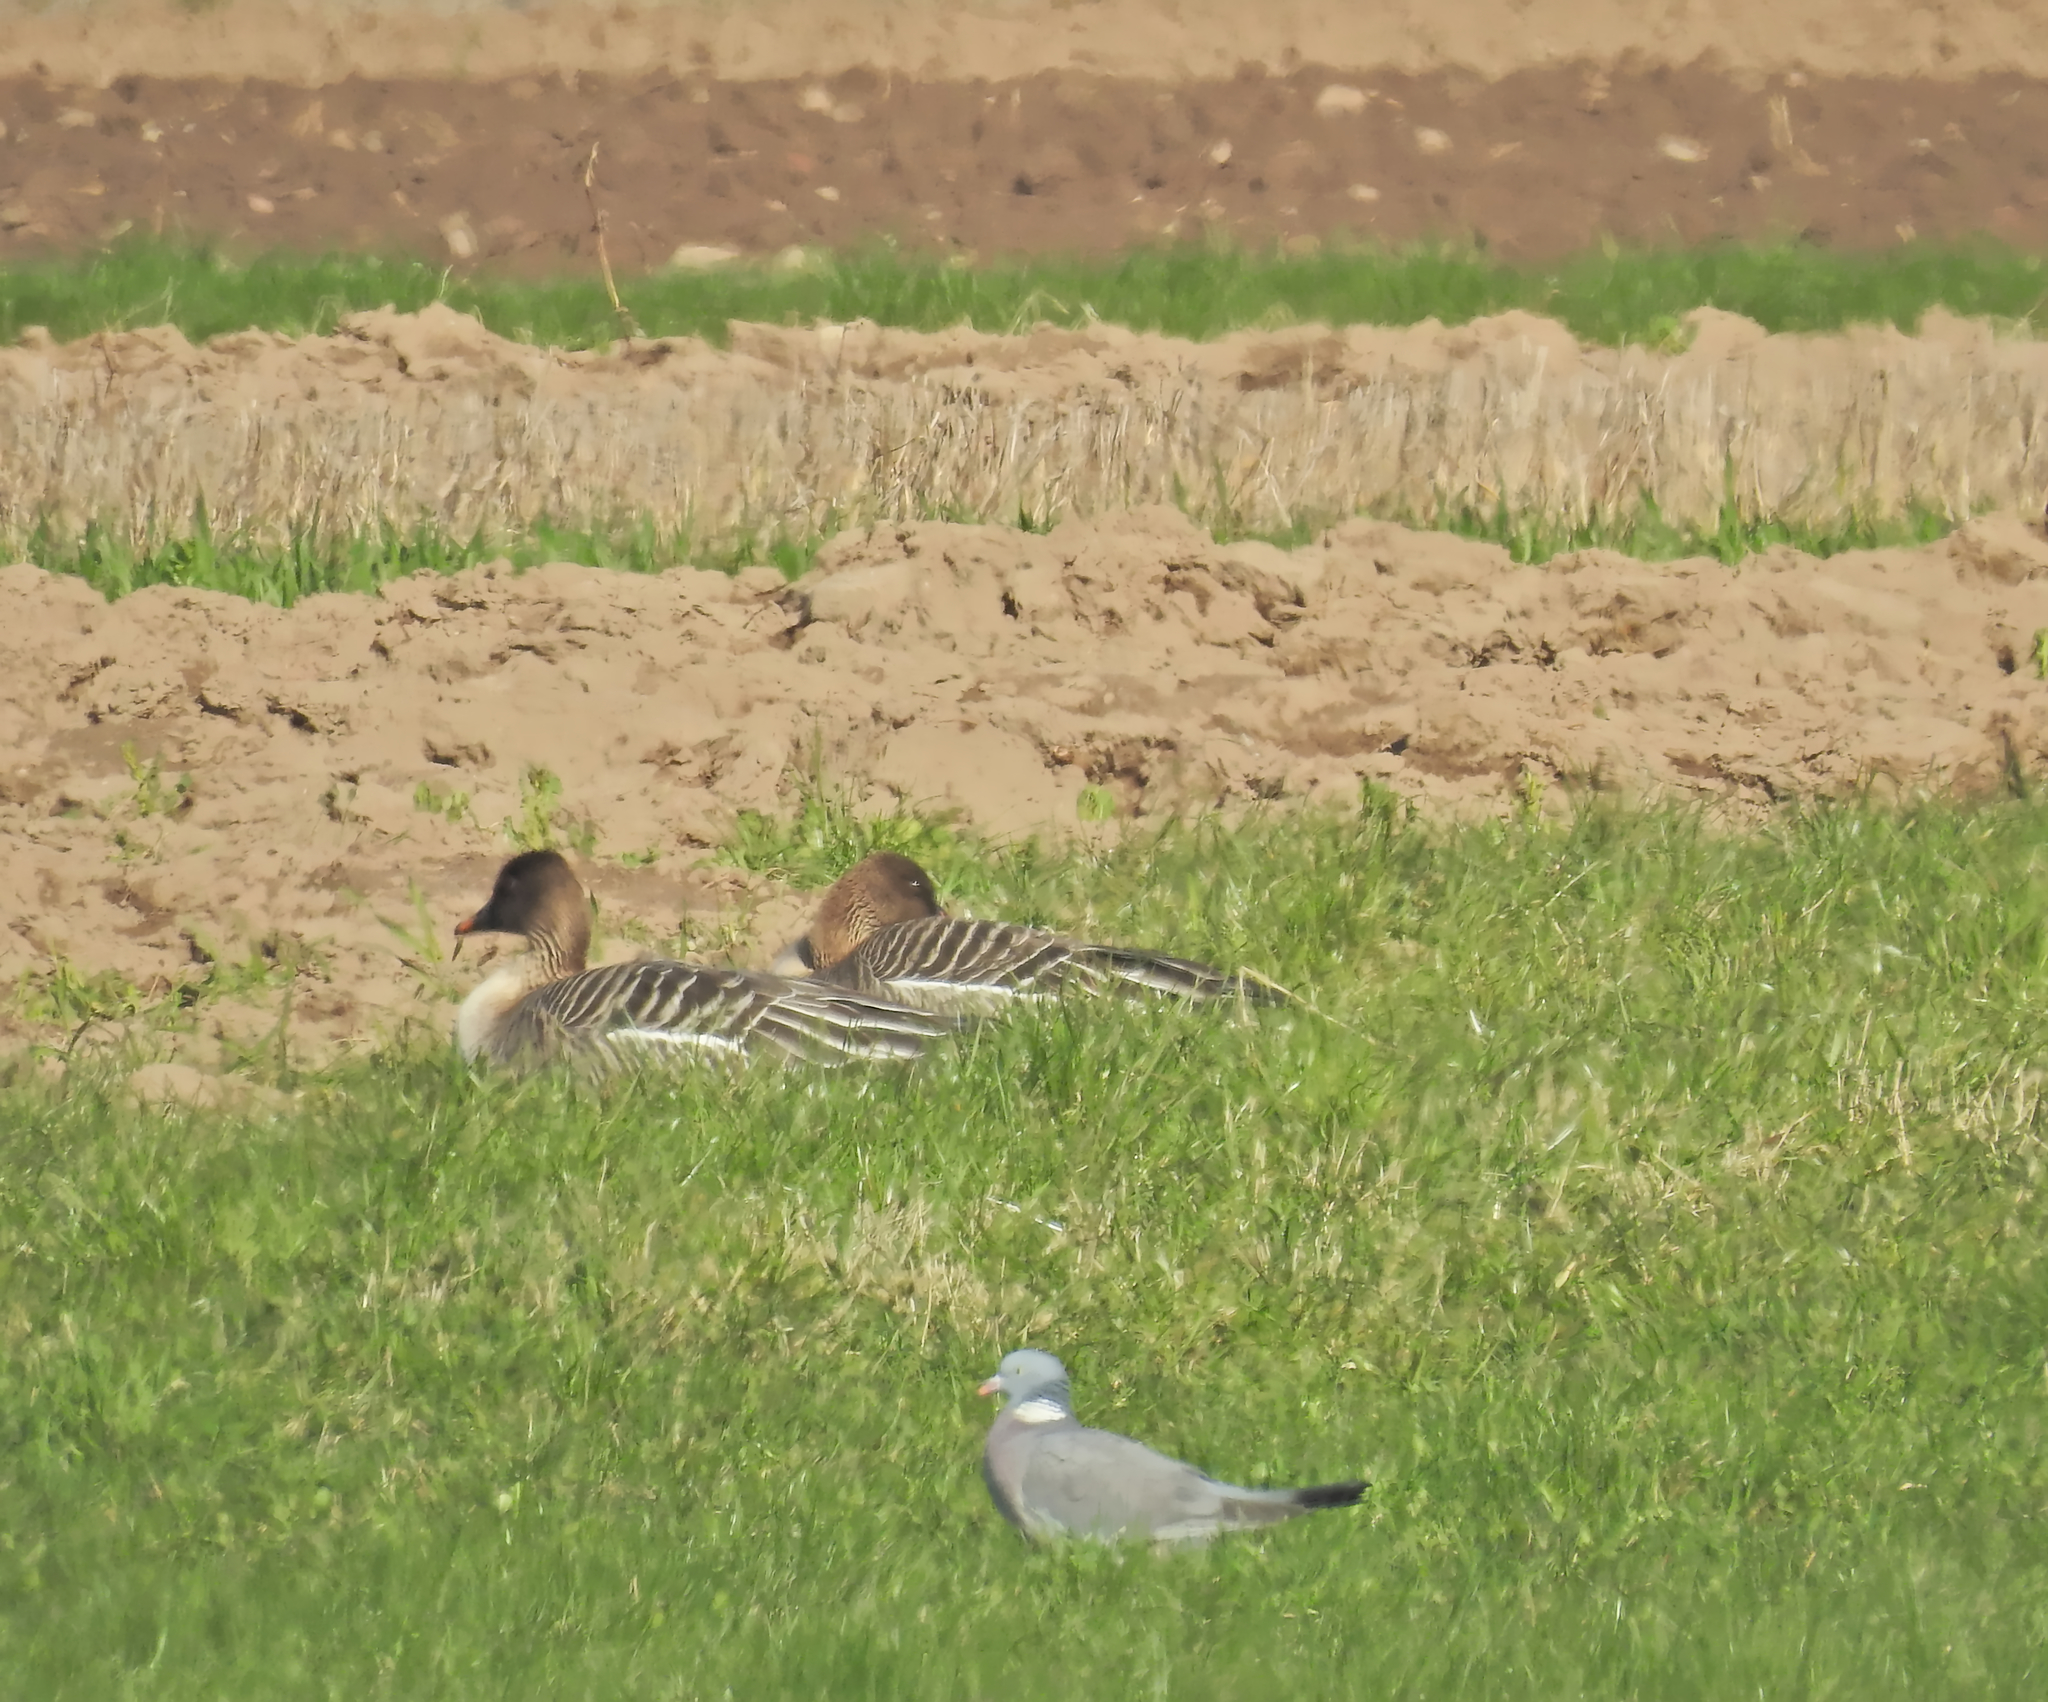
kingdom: Animalia
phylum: Chordata
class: Aves
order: Anseriformes
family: Anatidae
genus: Anser
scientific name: Anser serrirostris
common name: Tundra bean goose
